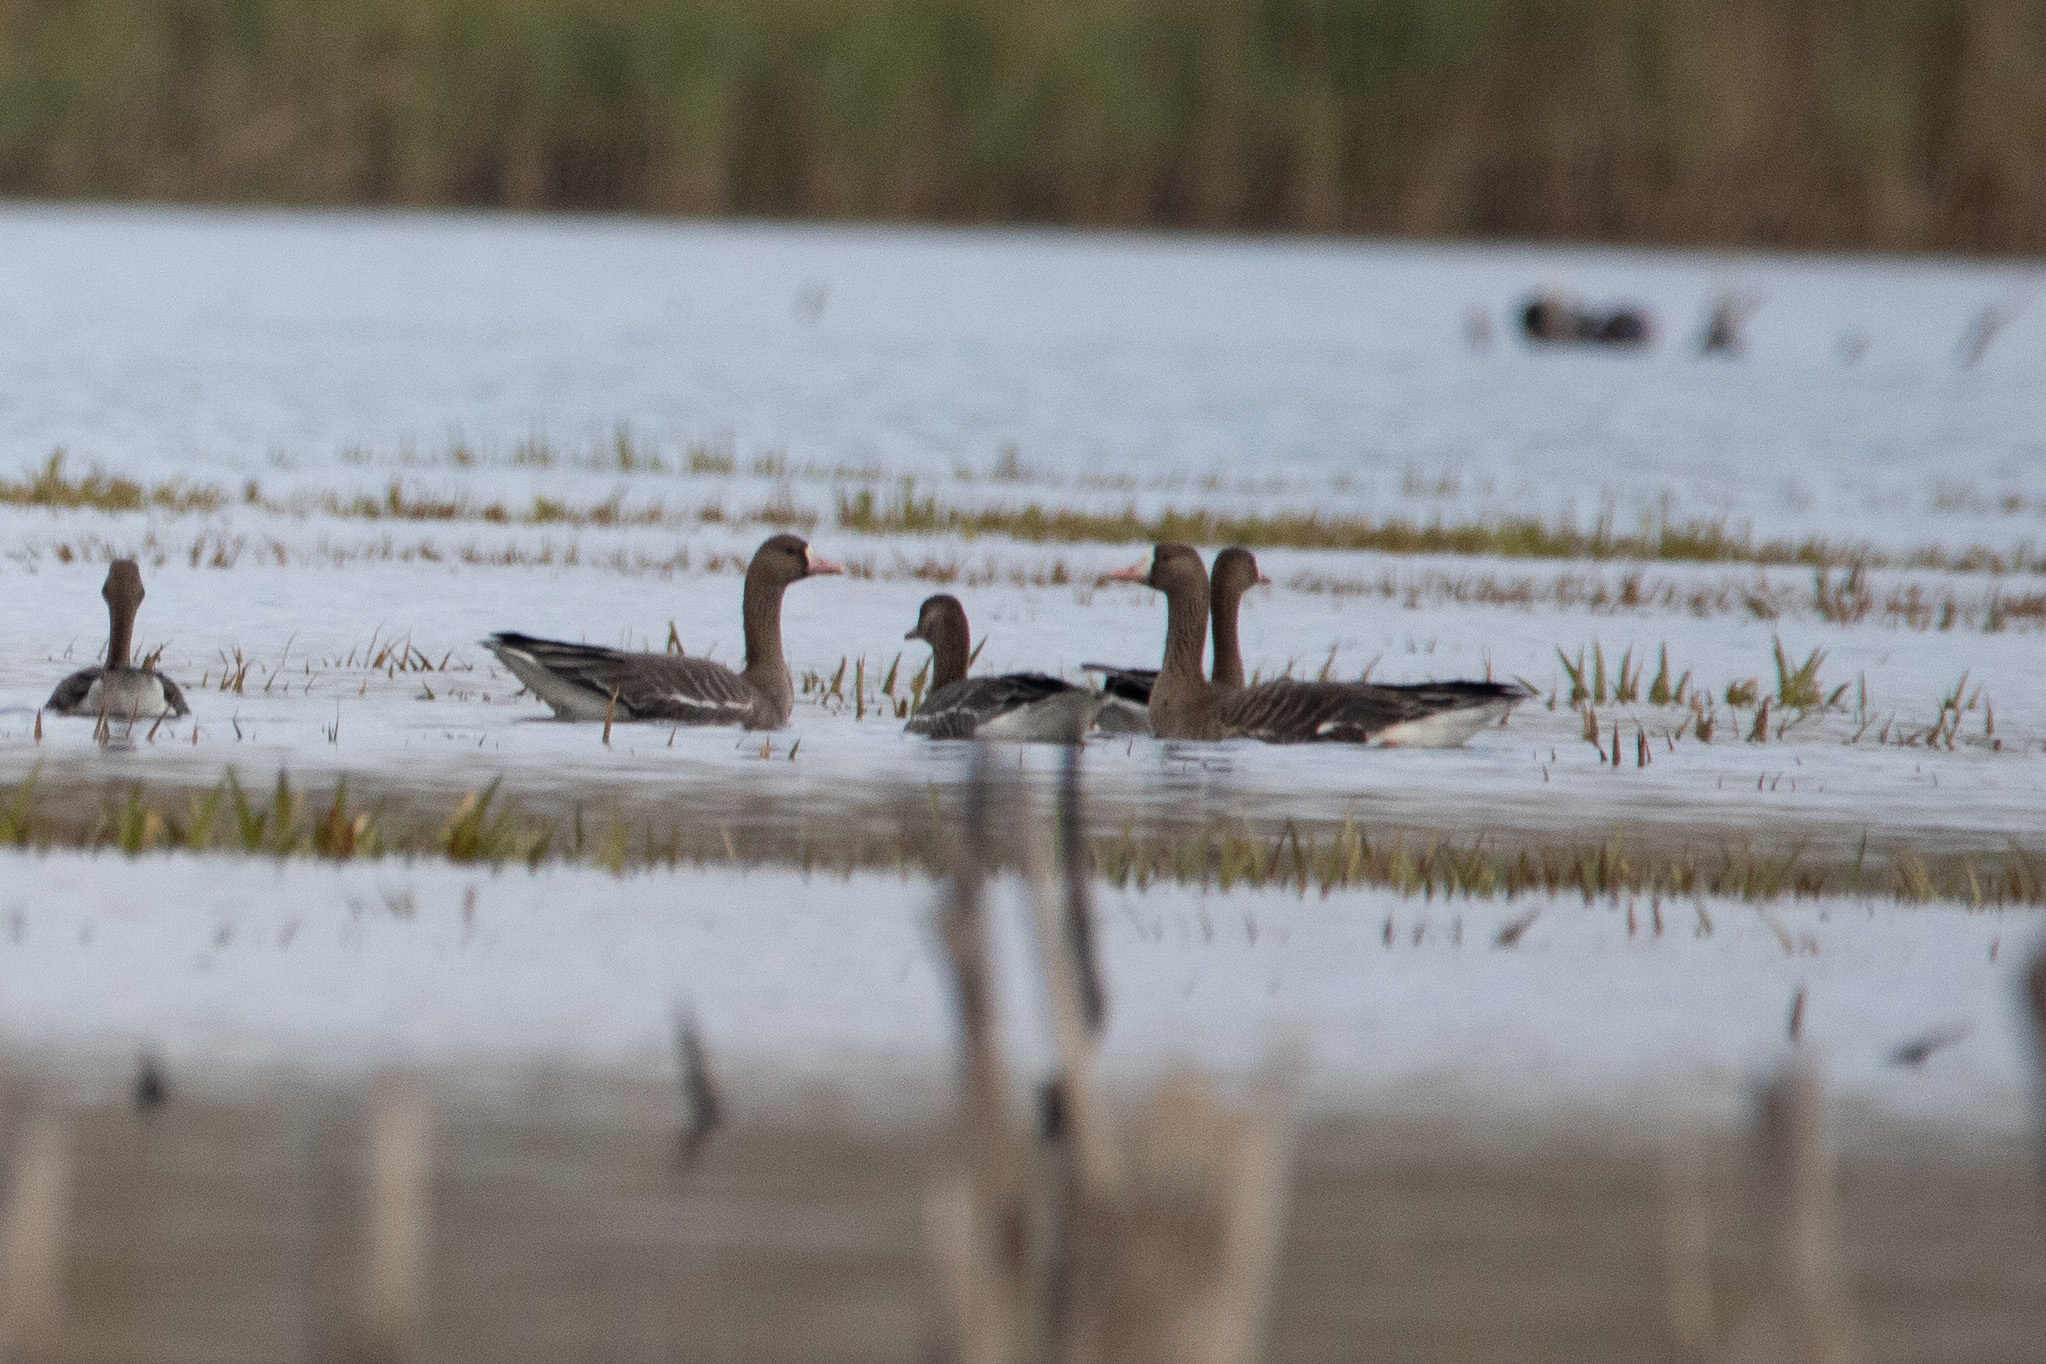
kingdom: Animalia
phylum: Chordata
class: Aves
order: Anseriformes
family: Anatidae
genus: Anser
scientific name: Anser albifrons
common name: Greater white-fronted goose
